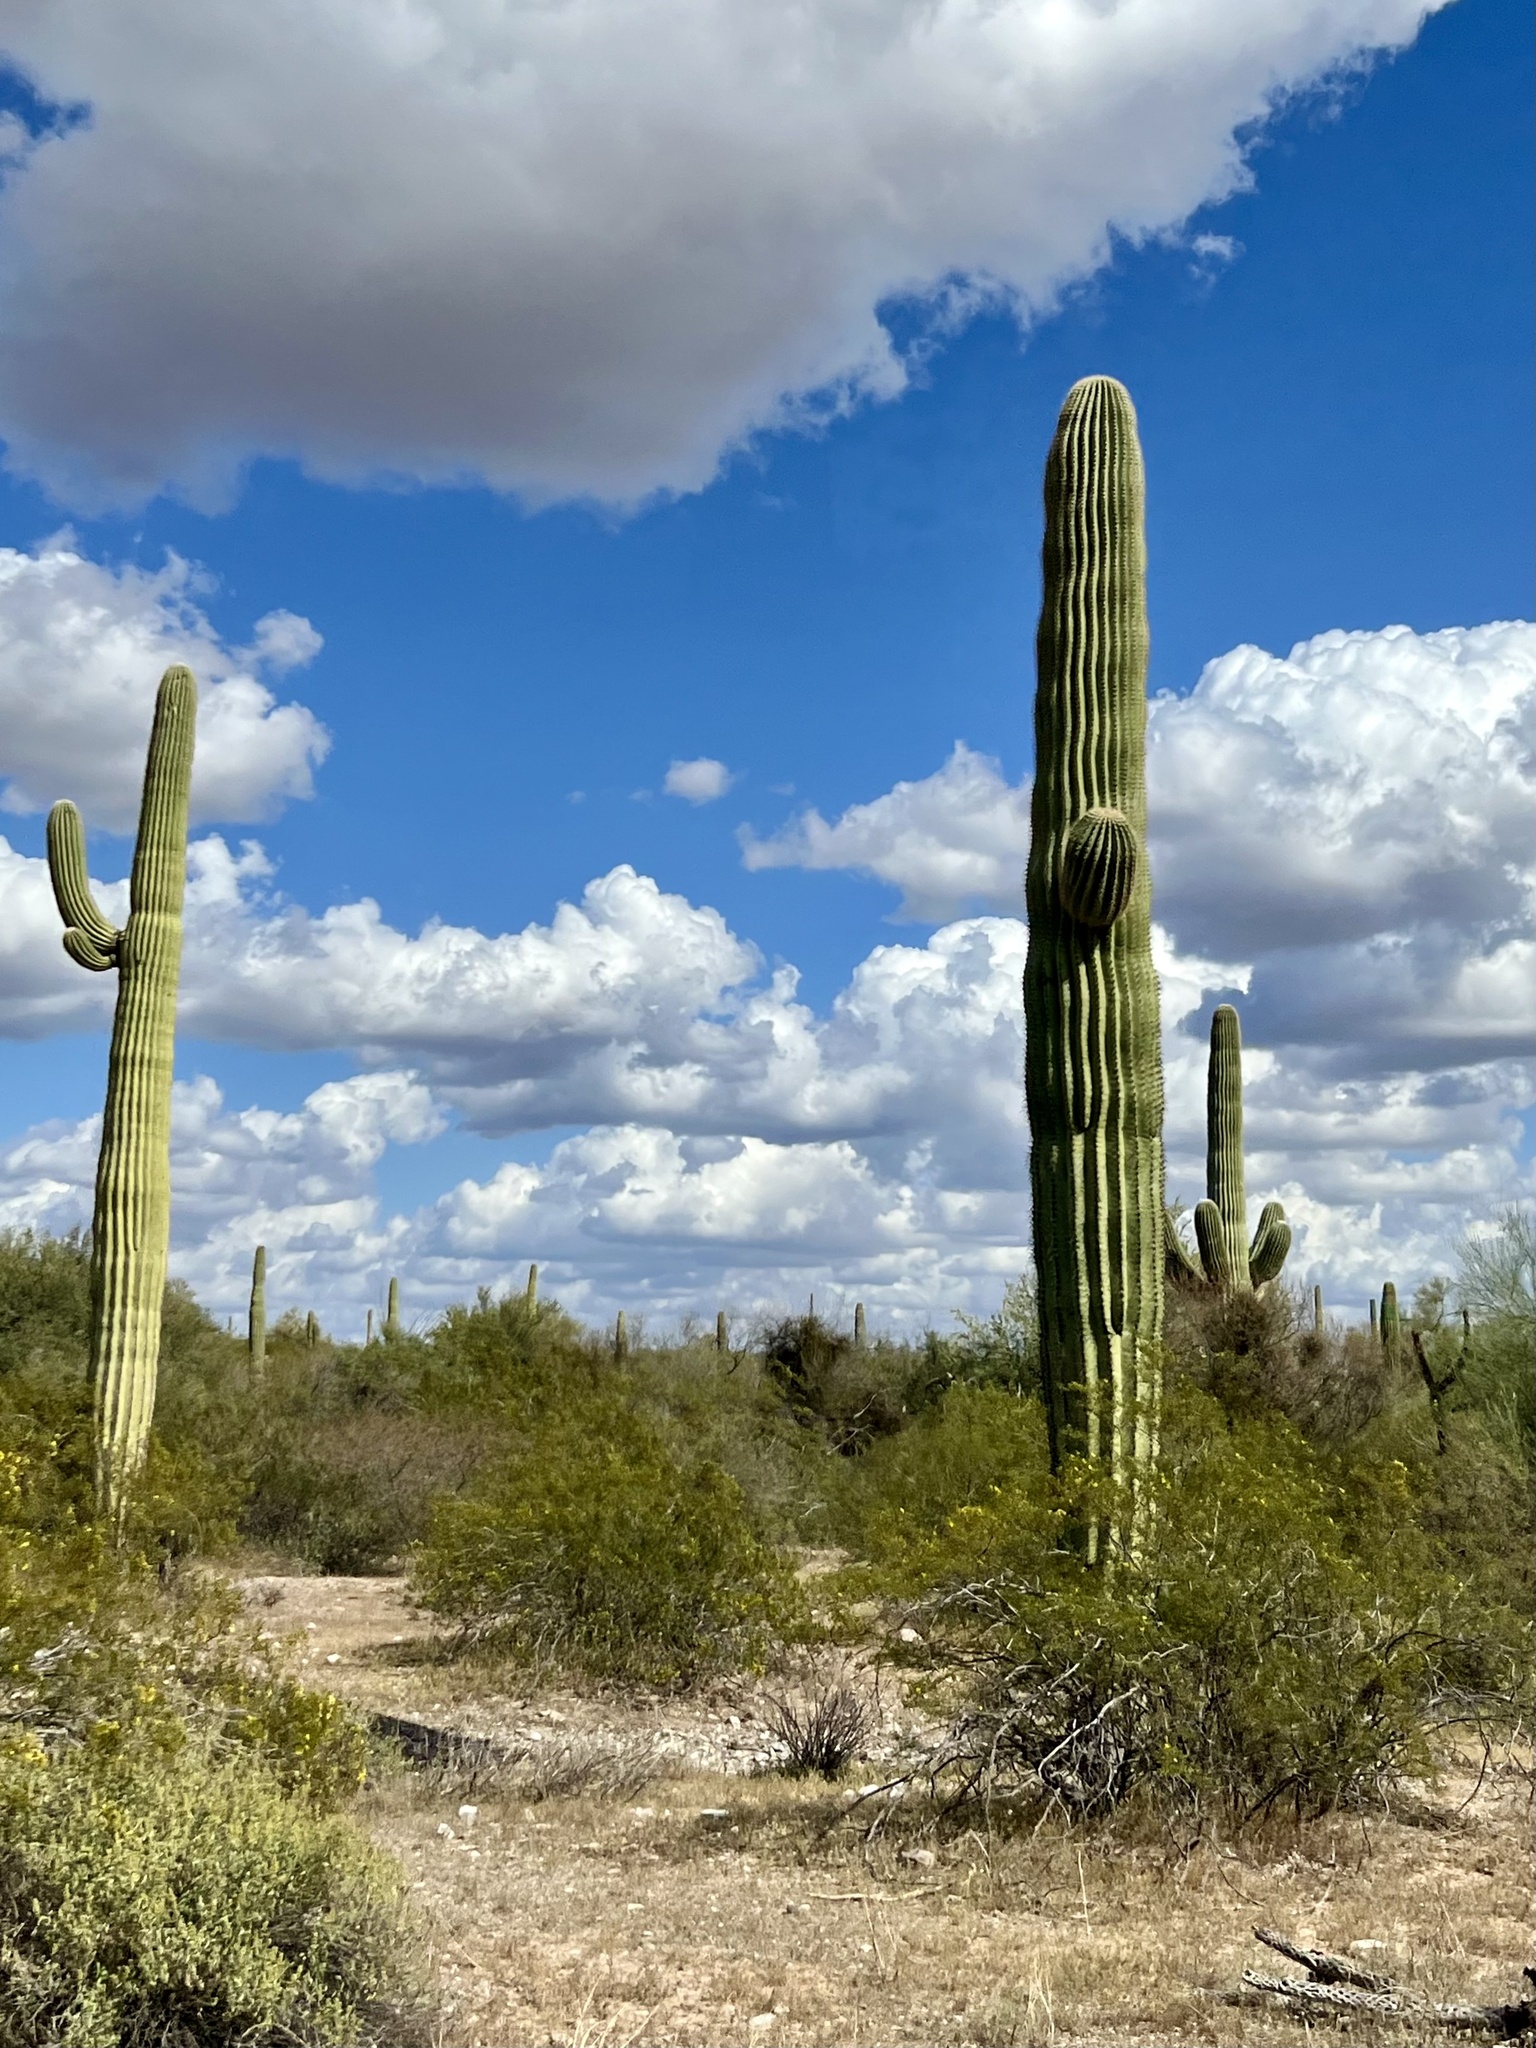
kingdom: Plantae
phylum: Tracheophyta
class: Magnoliopsida
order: Caryophyllales
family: Cactaceae
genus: Carnegiea
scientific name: Carnegiea gigantea
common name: Saguaro
